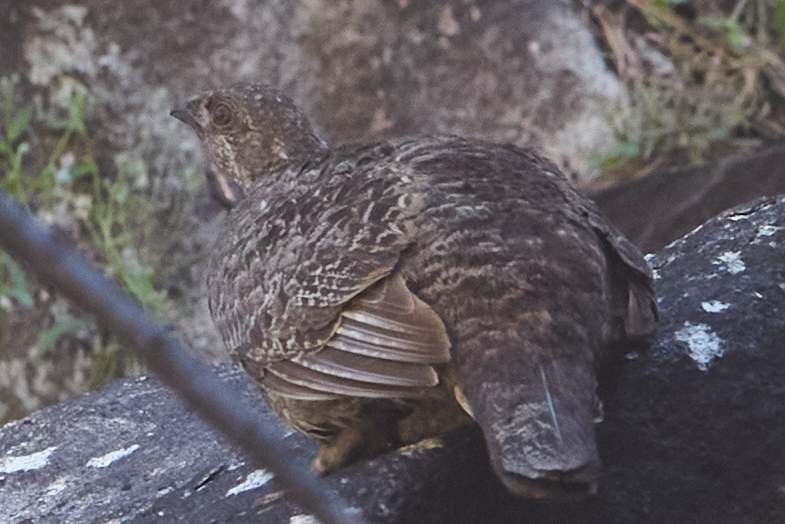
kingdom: Animalia
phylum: Chordata
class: Aves
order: Galliformes
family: Phasianidae
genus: Dendragapus
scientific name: Dendragapus fuliginosus
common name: Sooty grouse
